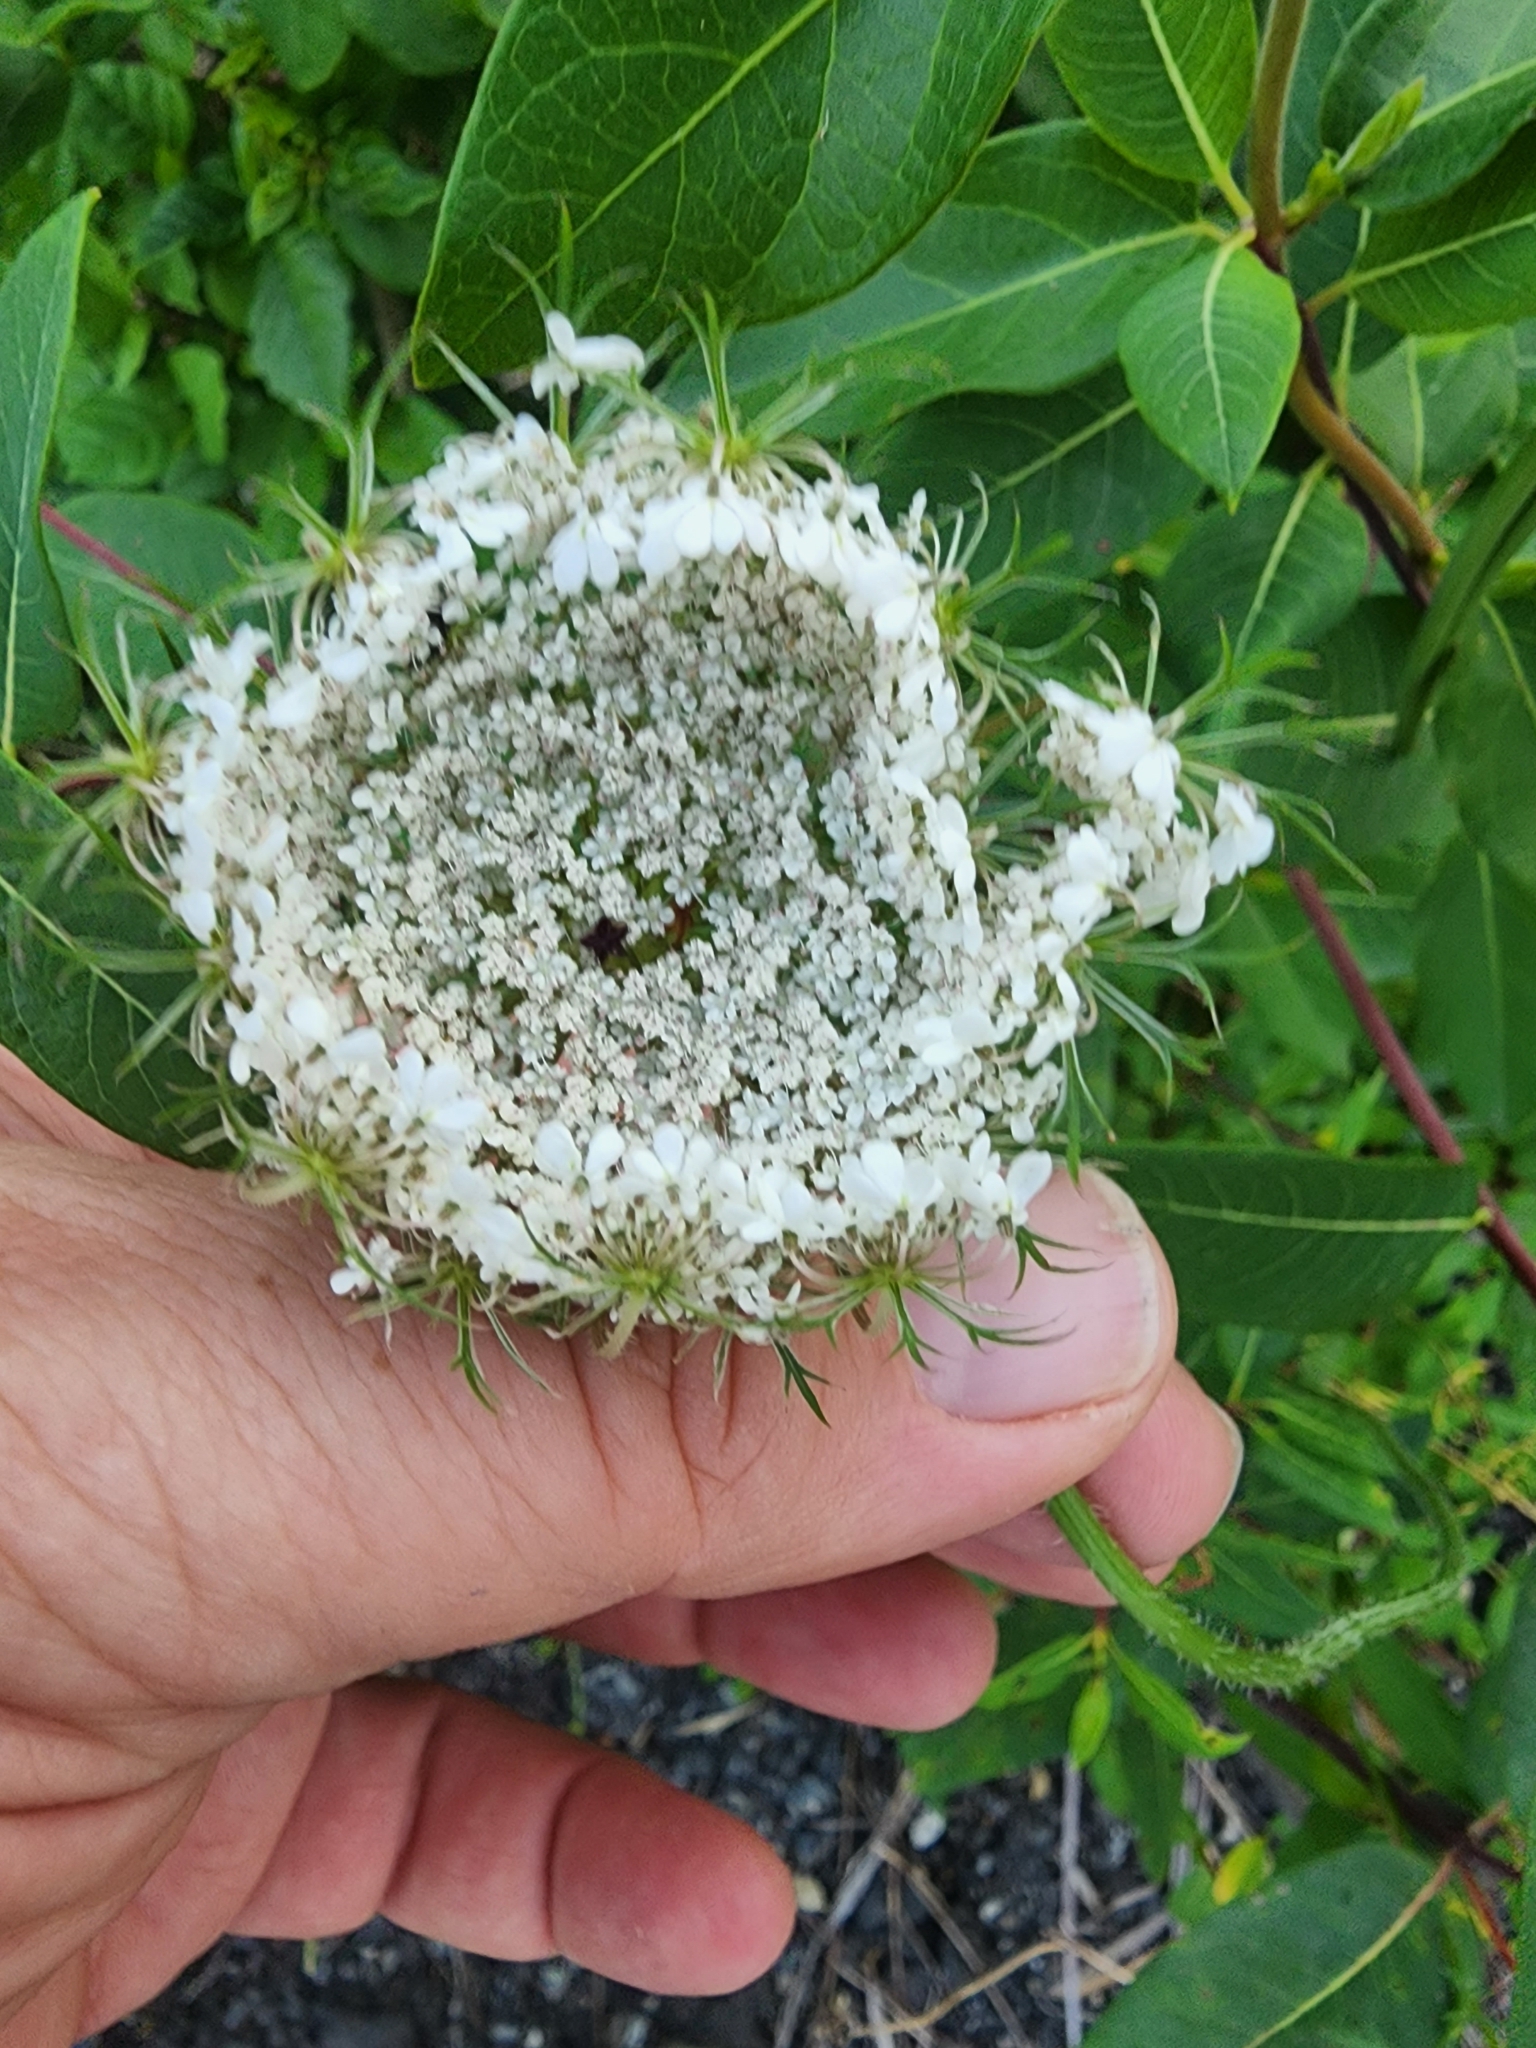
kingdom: Plantae
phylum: Tracheophyta
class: Magnoliopsida
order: Apiales
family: Apiaceae
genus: Daucus
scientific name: Daucus carota
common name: Wild carrot
